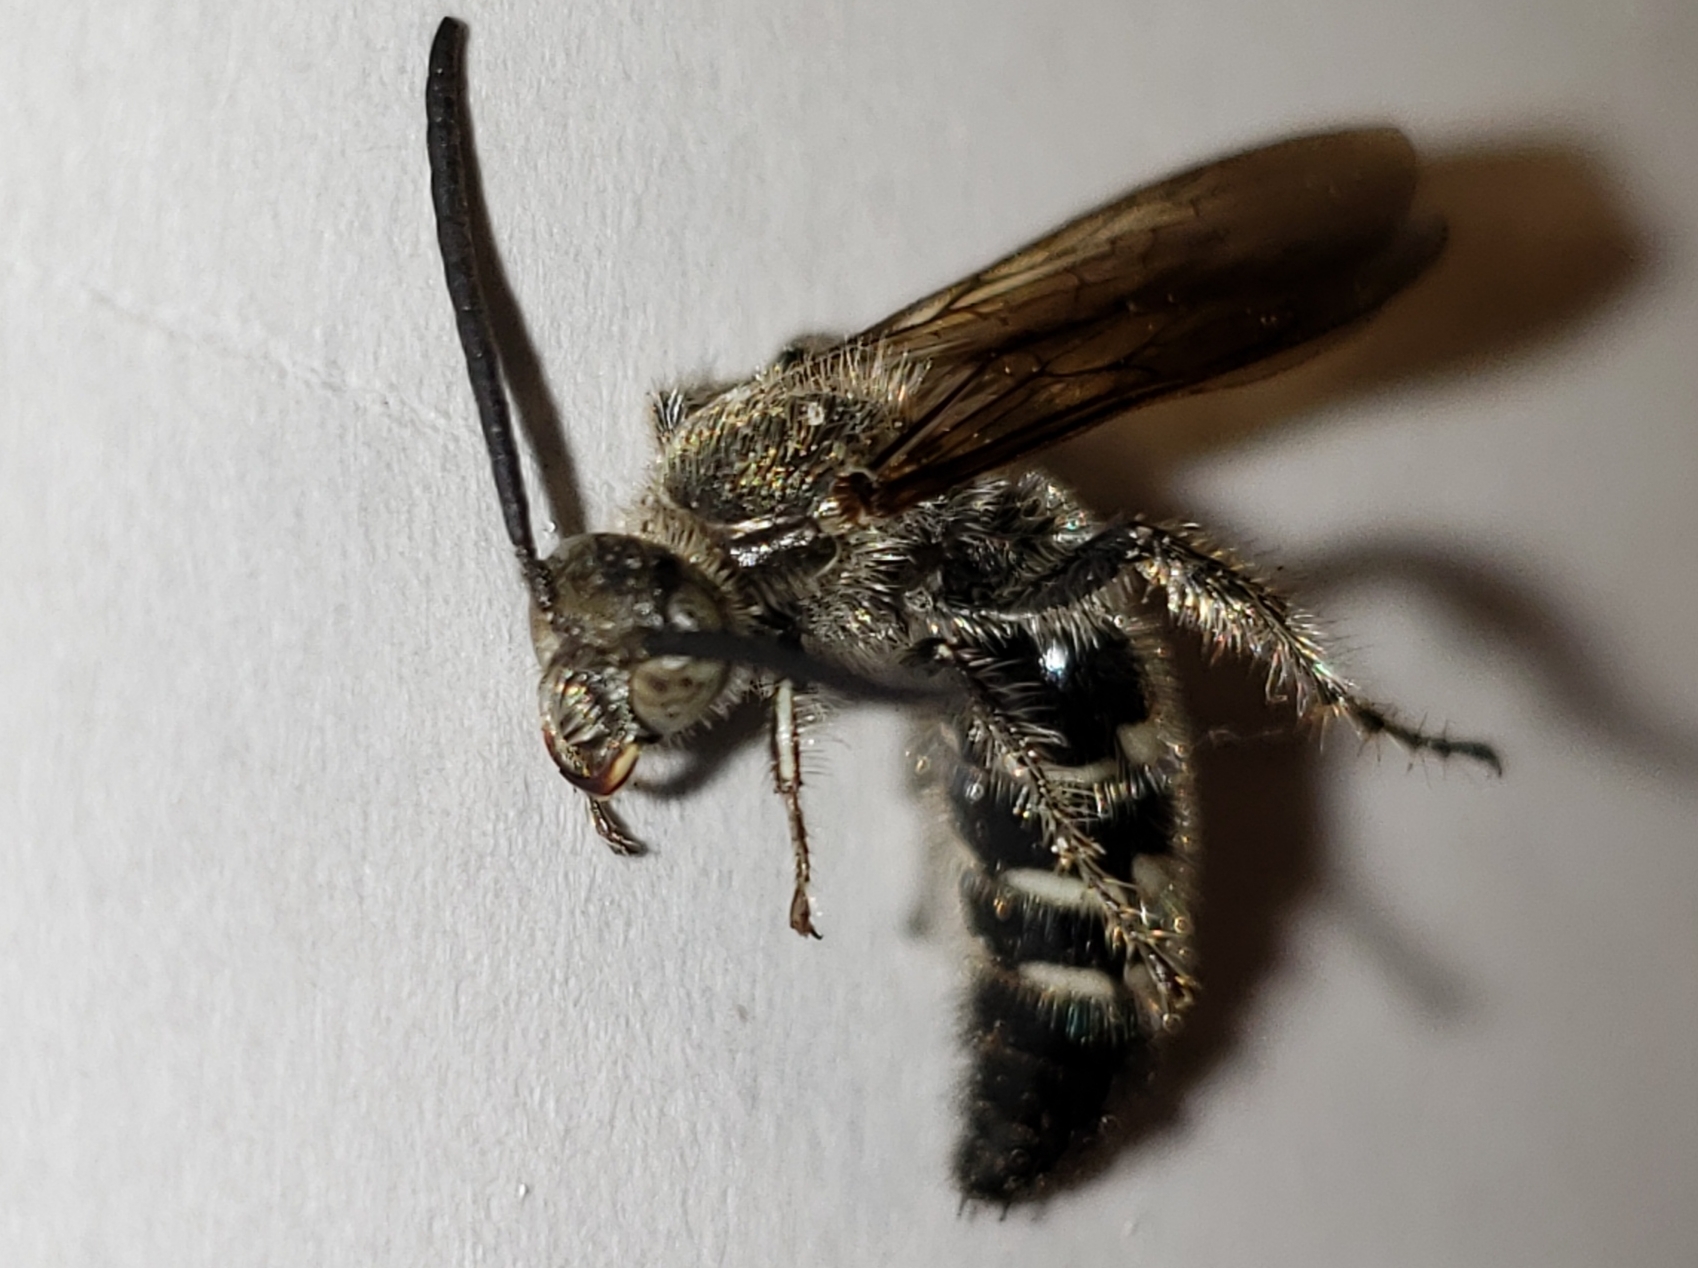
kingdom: Animalia
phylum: Arthropoda
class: Insecta
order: Hymenoptera
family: Scoliidae
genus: Dielis
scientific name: Dielis
